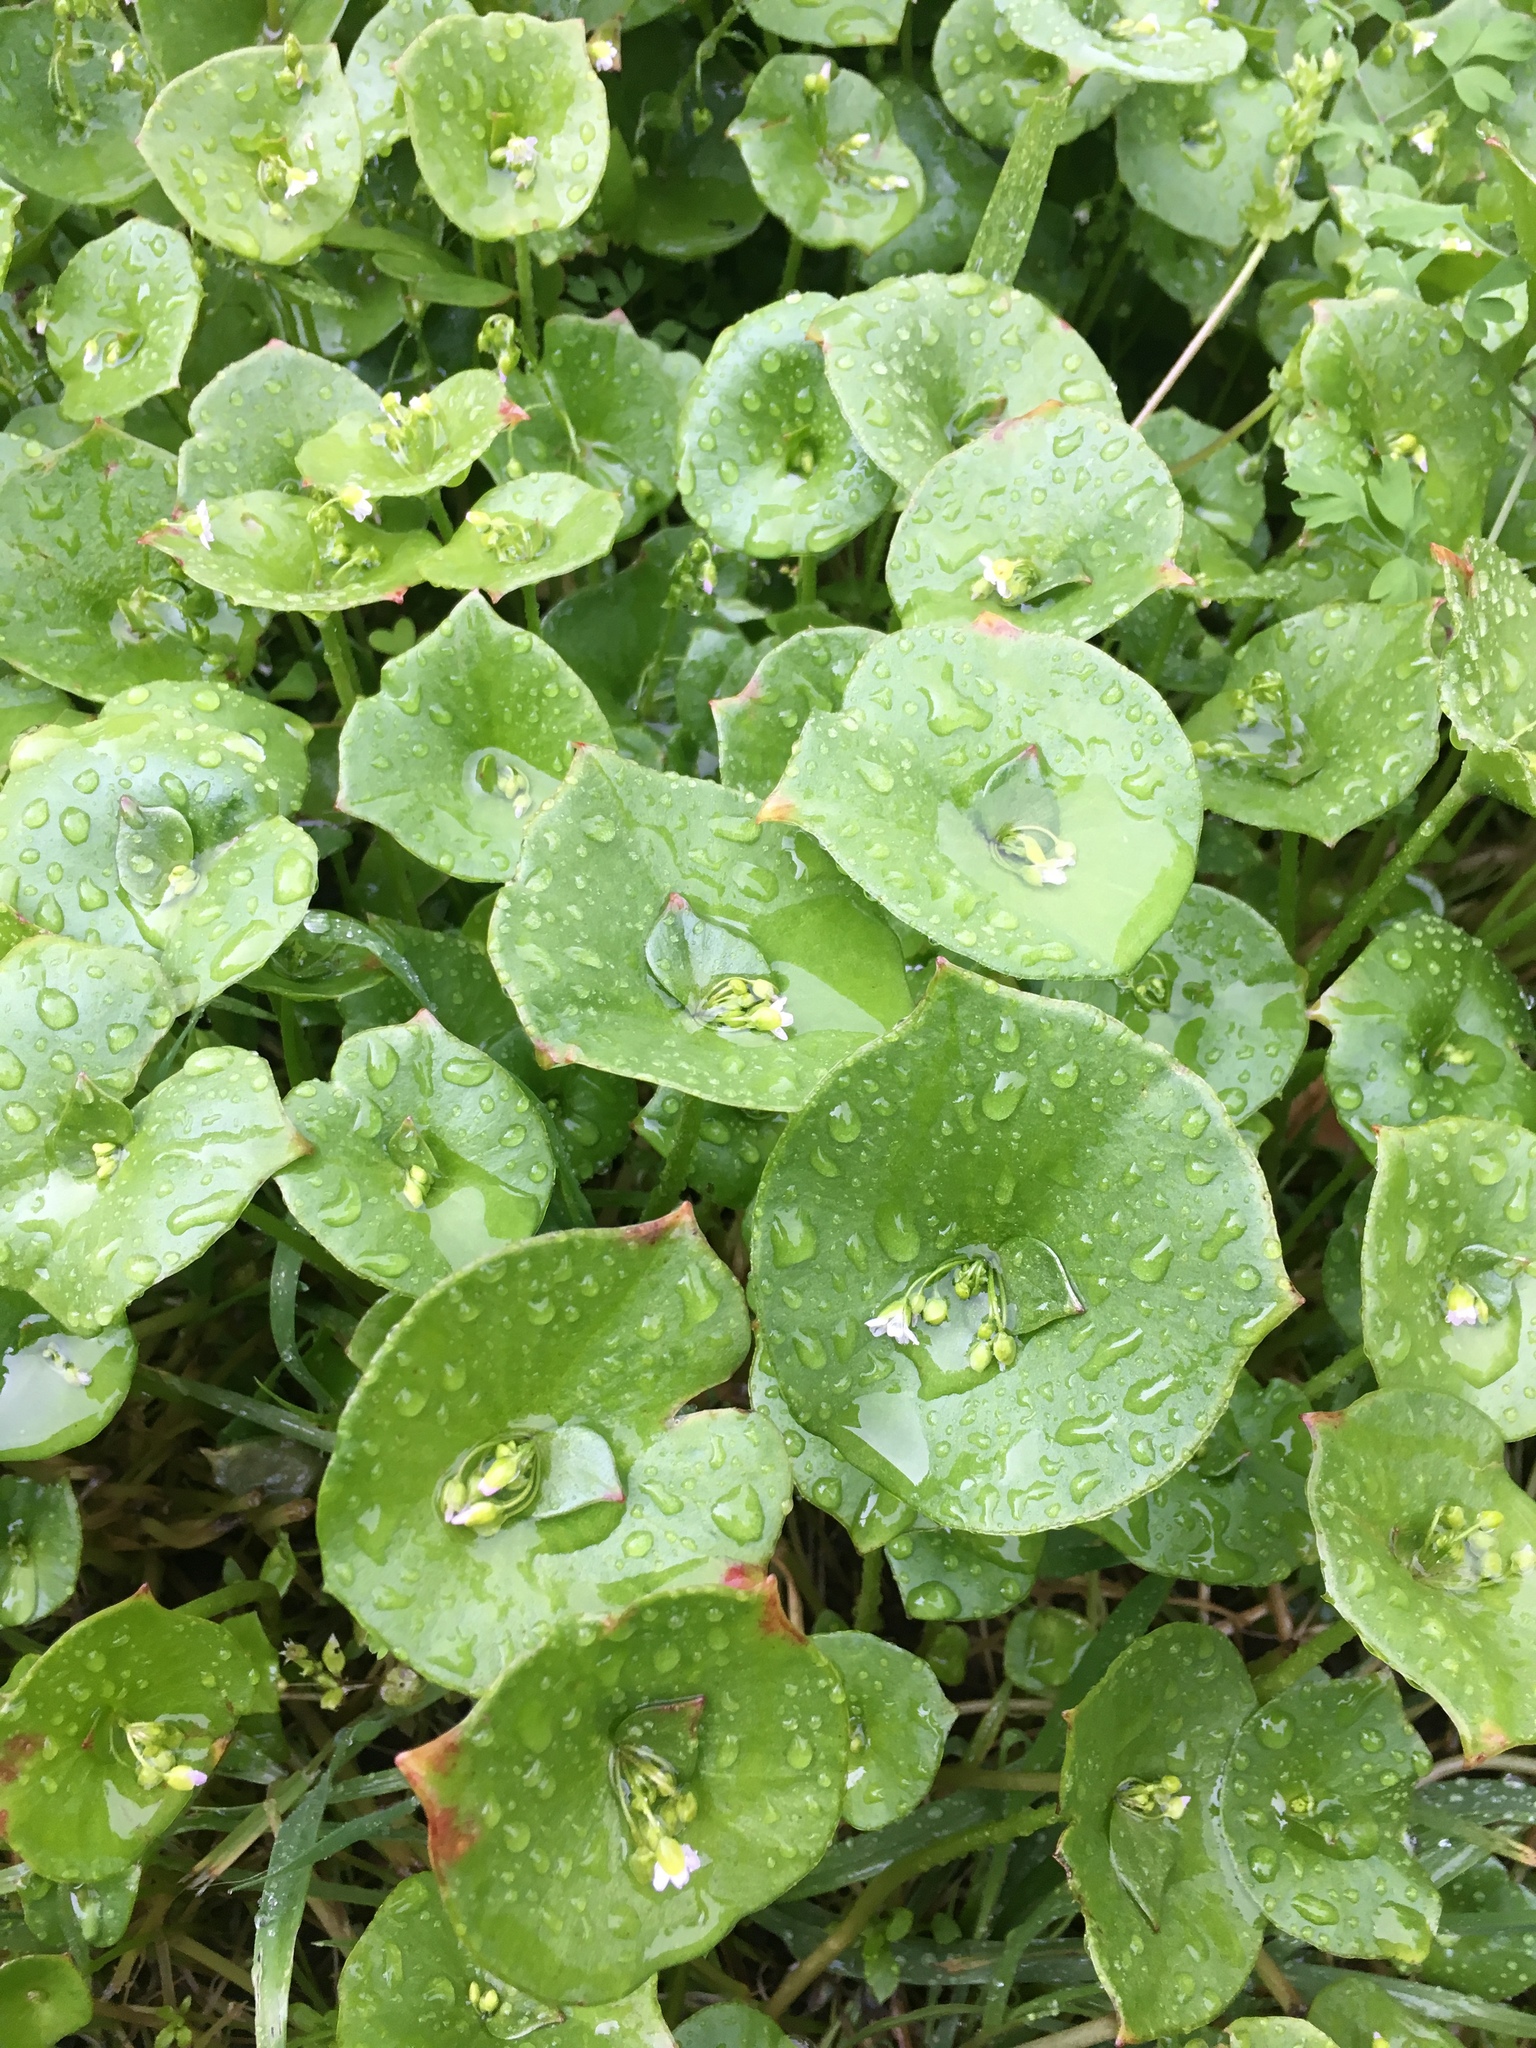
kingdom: Plantae
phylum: Tracheophyta
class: Magnoliopsida
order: Caryophyllales
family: Montiaceae
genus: Claytonia
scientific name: Claytonia perfoliata
